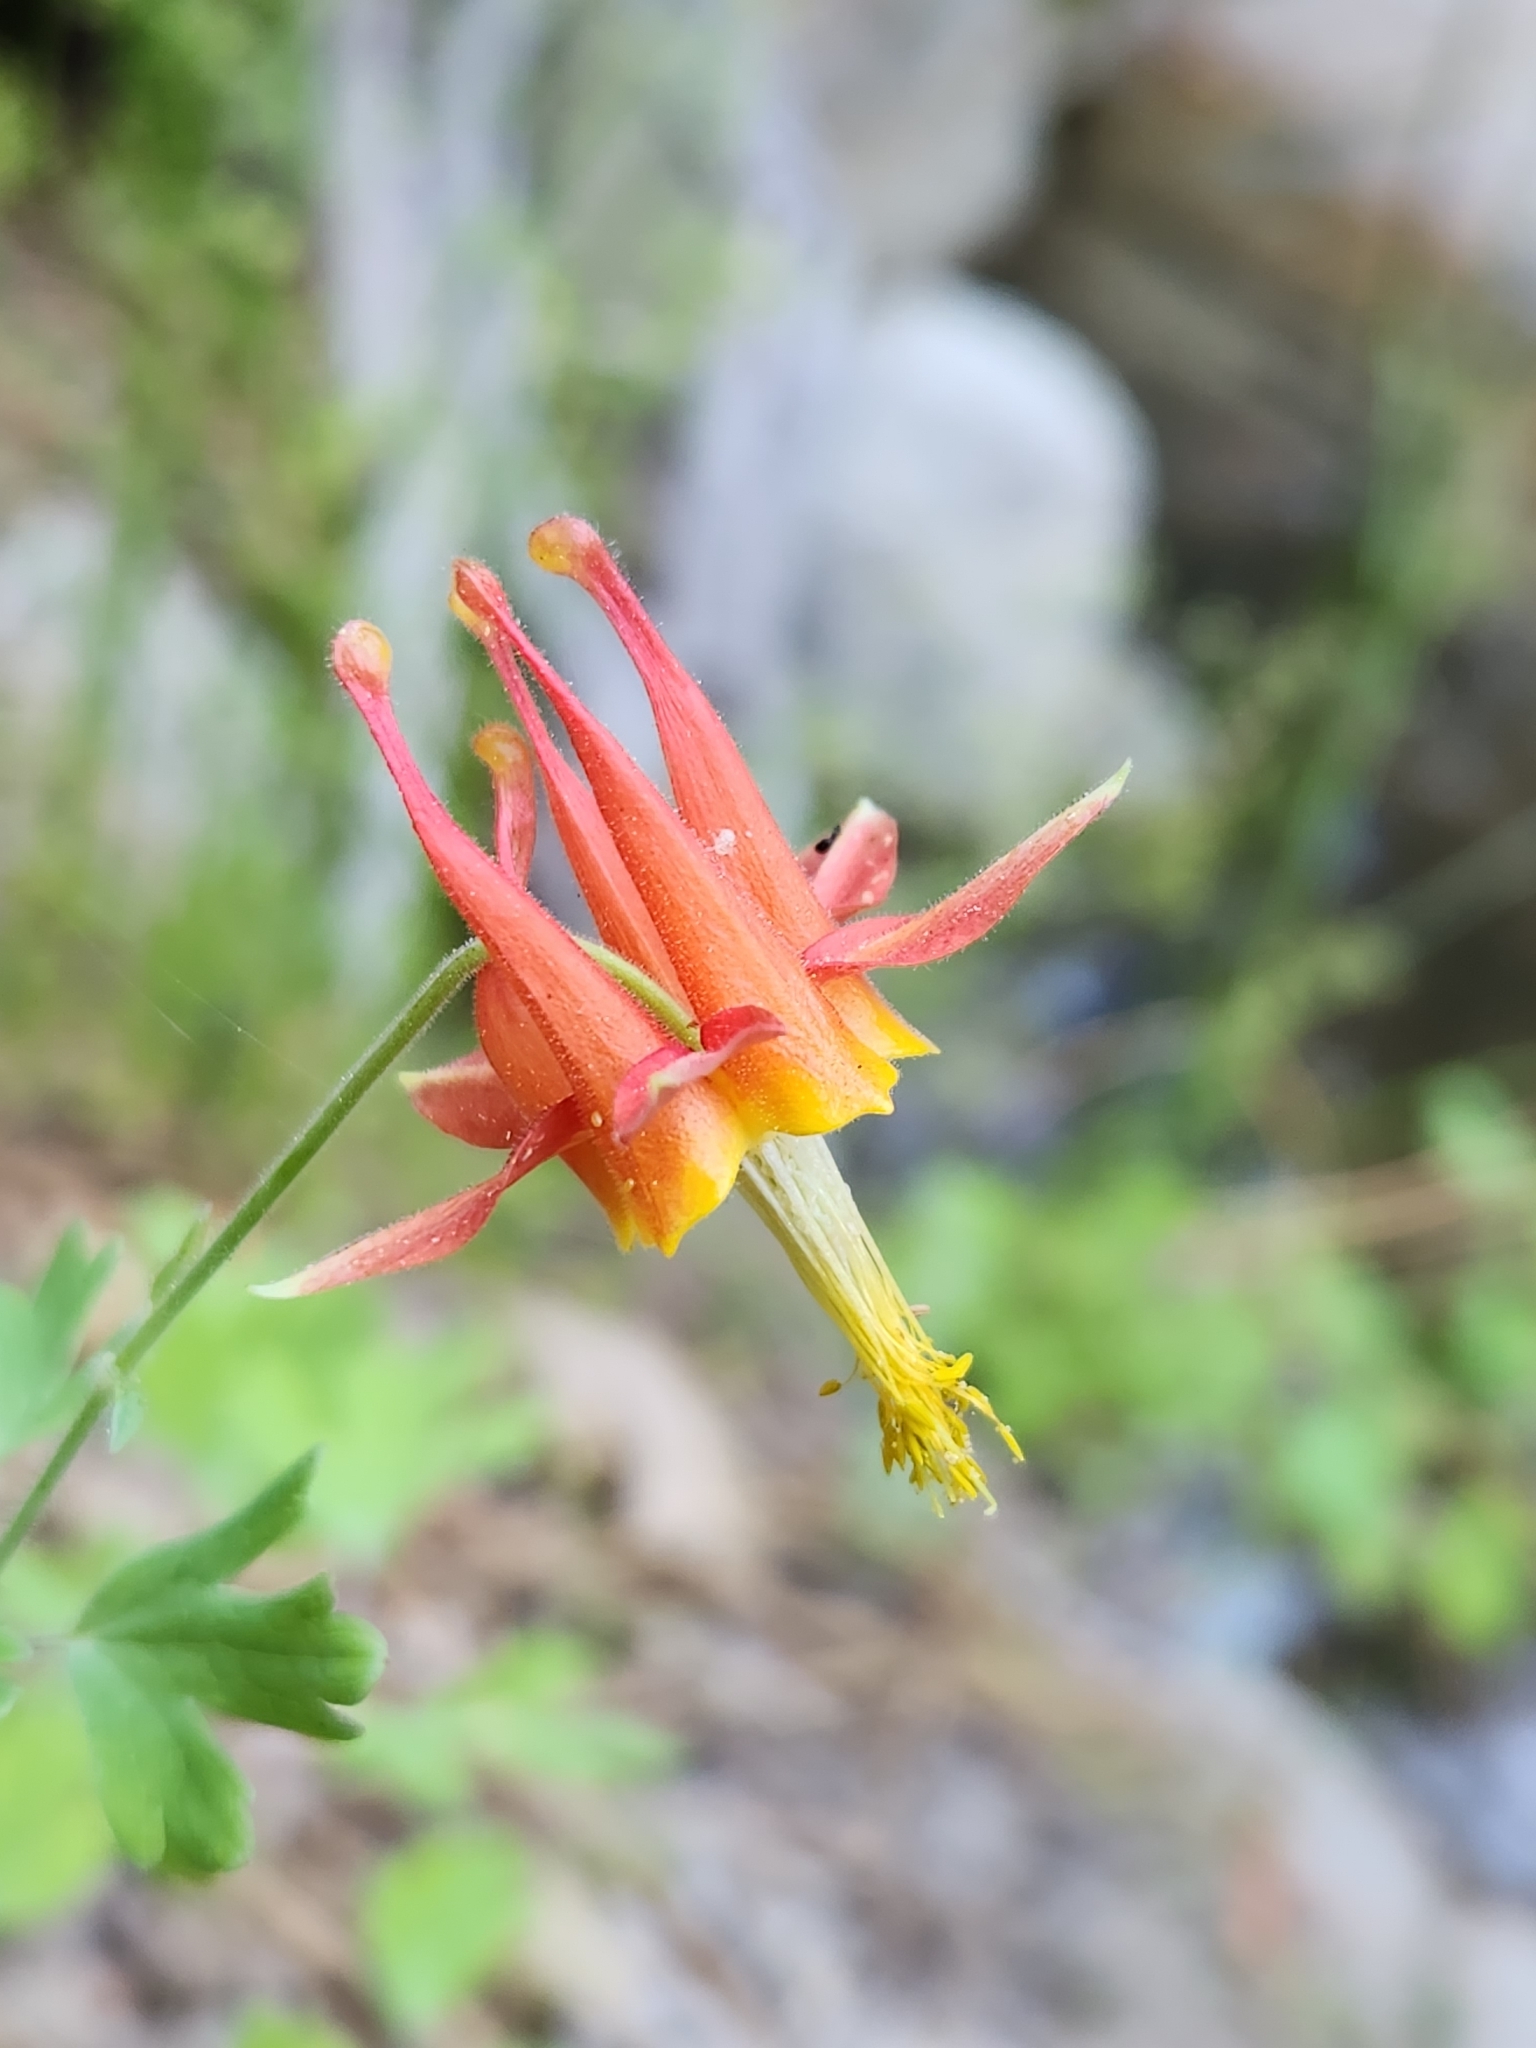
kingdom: Plantae
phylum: Tracheophyta
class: Magnoliopsida
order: Ranunculales
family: Ranunculaceae
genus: Aquilegia
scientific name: Aquilegia formosa
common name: Sitka columbine
